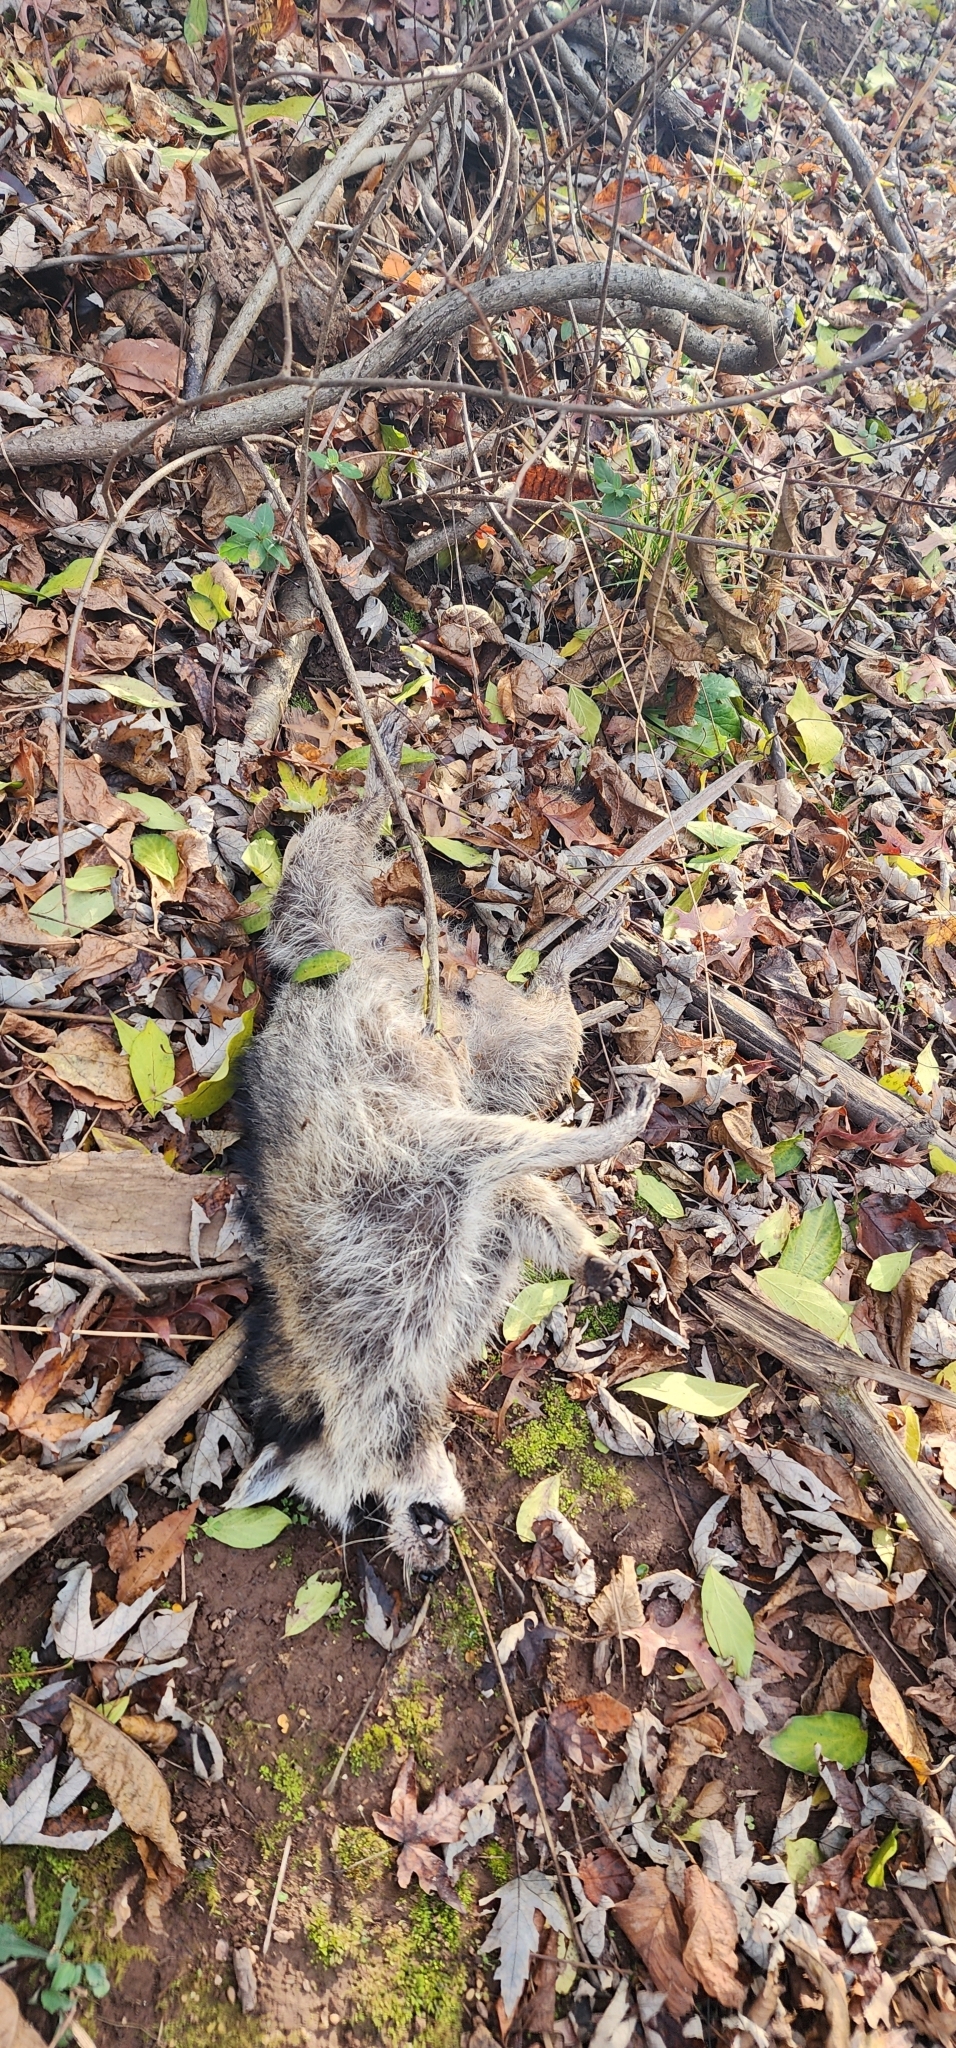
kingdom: Animalia
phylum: Chordata
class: Mammalia
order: Carnivora
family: Procyonidae
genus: Procyon
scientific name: Procyon lotor
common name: Raccoon
